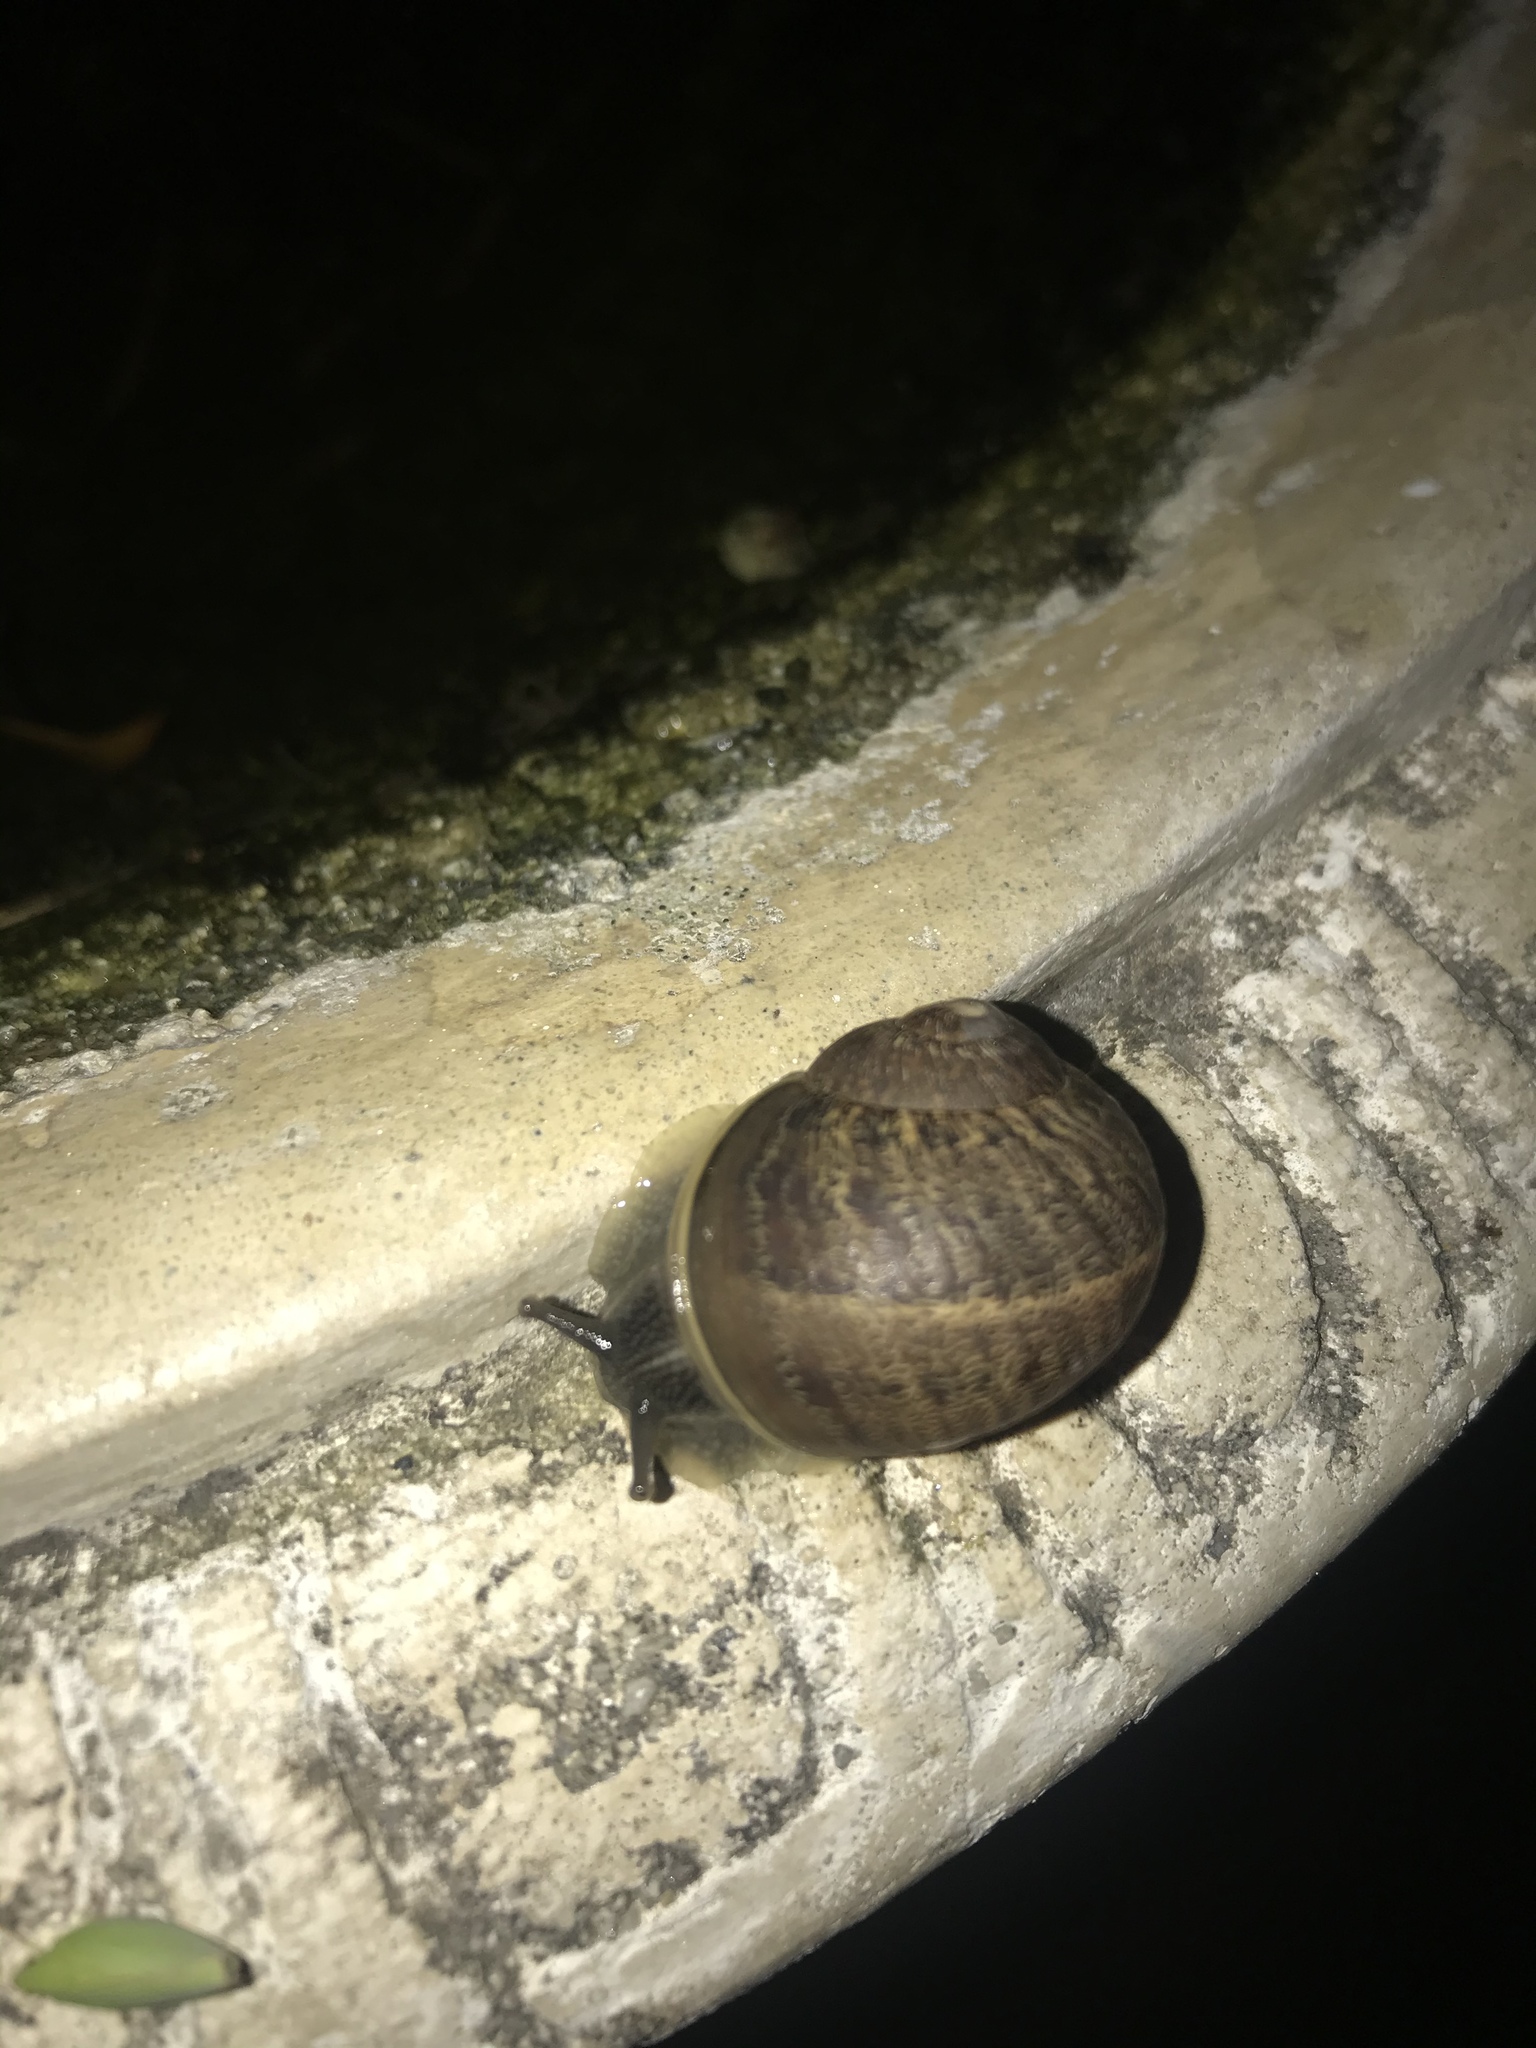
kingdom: Animalia
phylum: Mollusca
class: Gastropoda
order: Stylommatophora
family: Helicidae
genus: Cornu
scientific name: Cornu aspersum
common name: Brown garden snail
